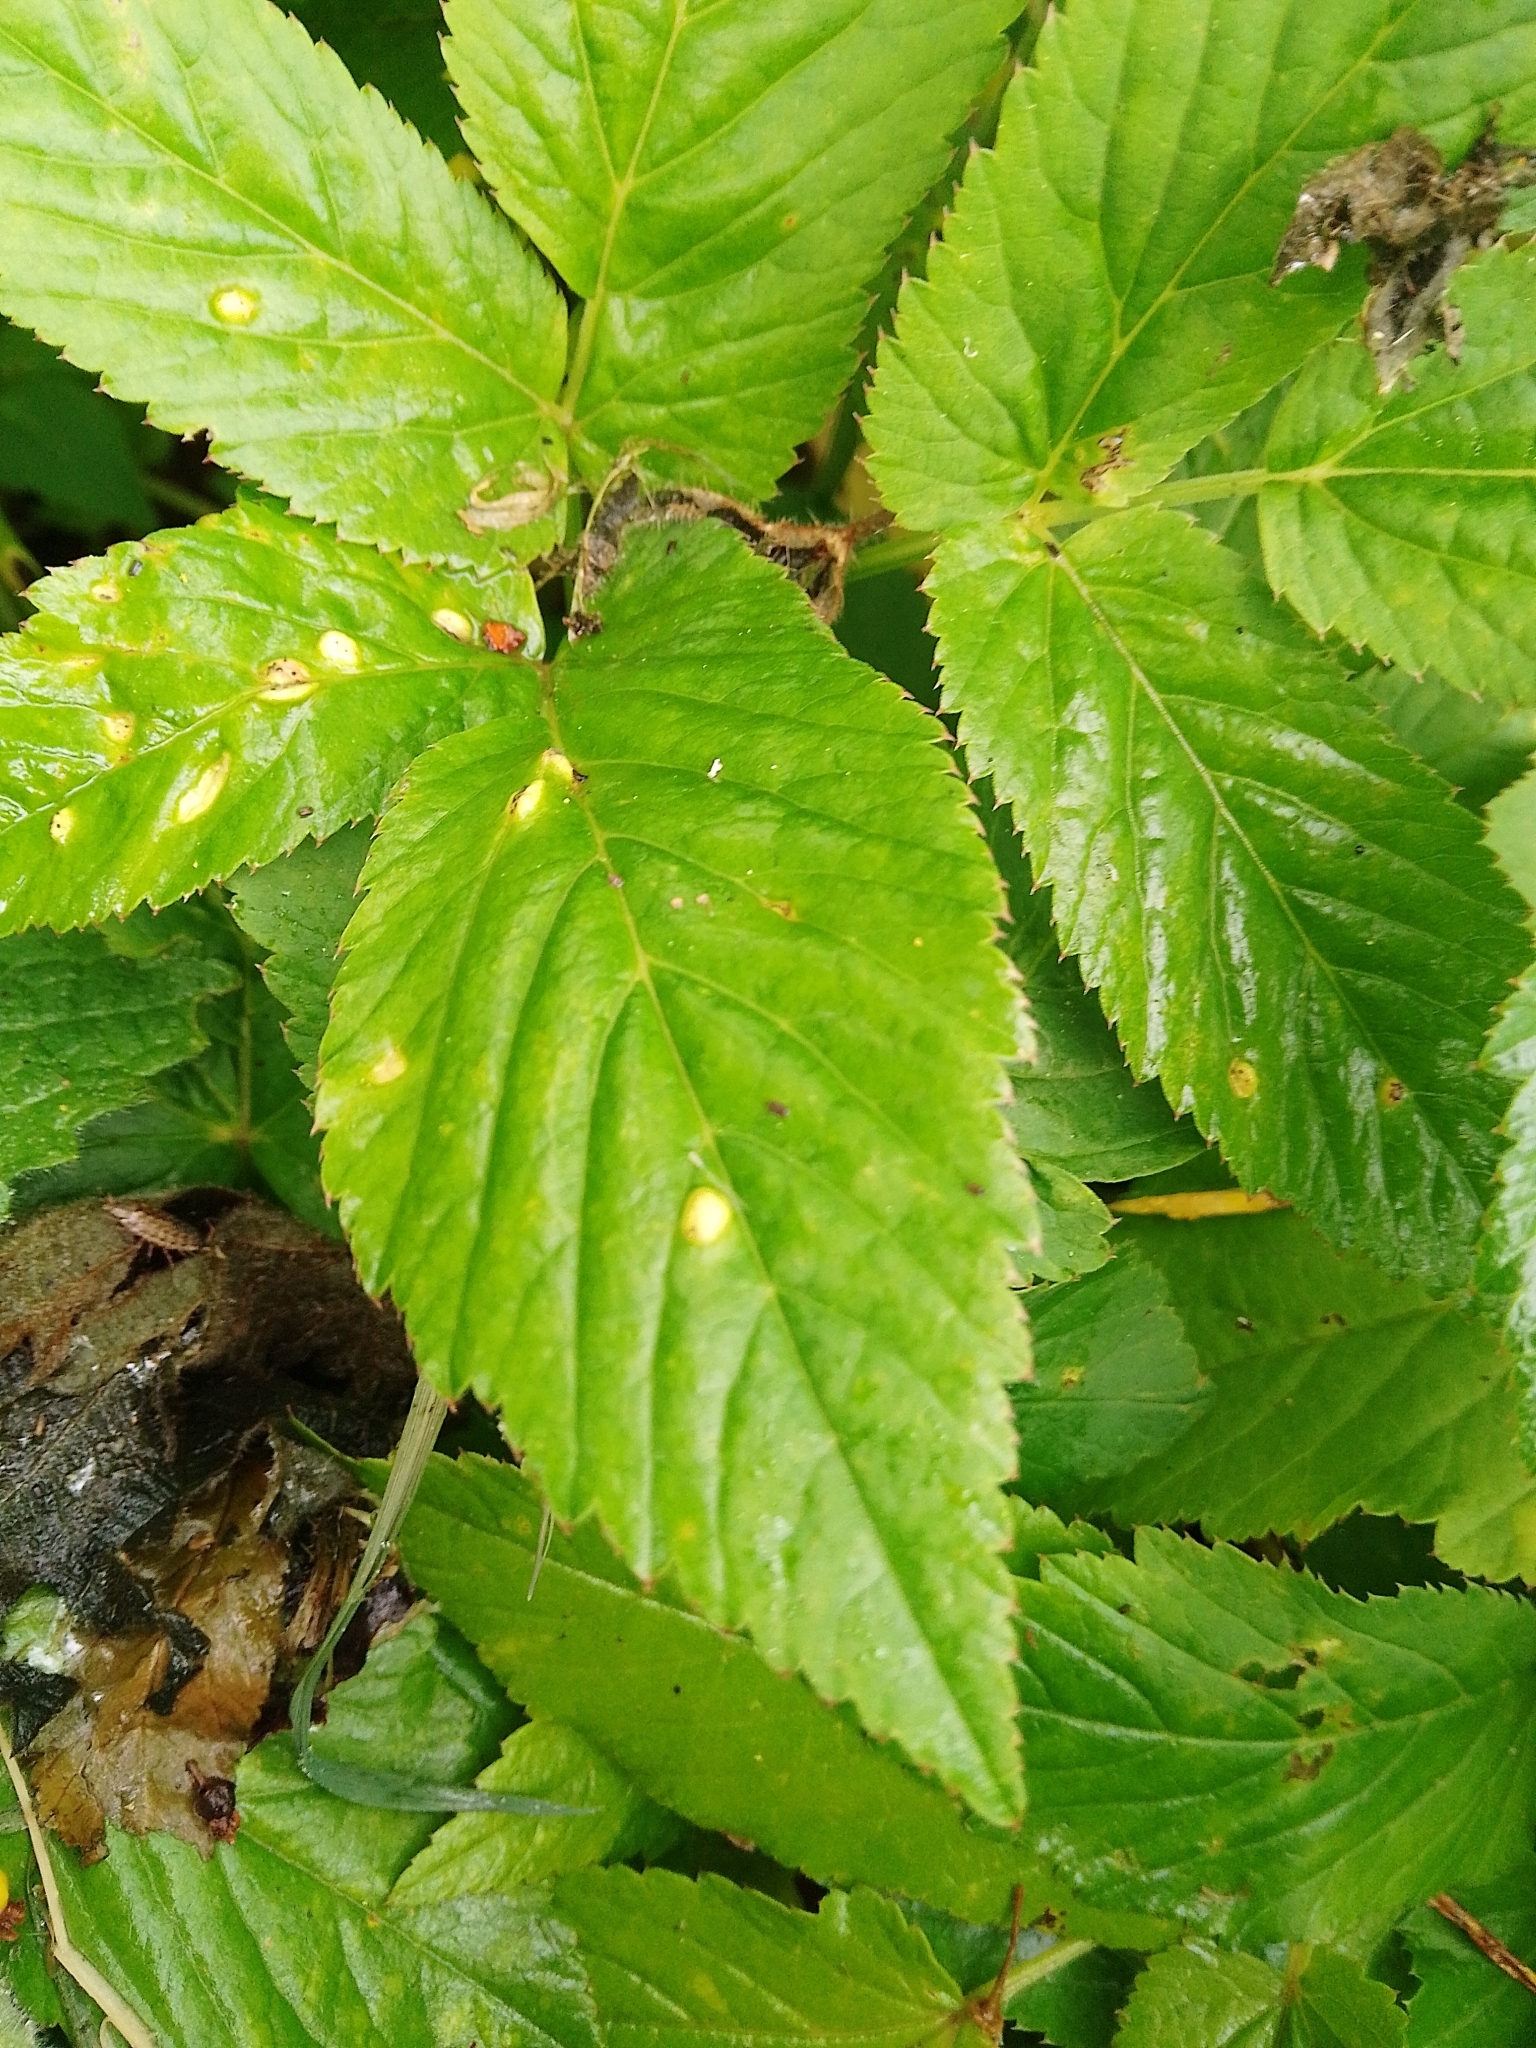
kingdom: Fungi
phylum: Basidiomycota
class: Pucciniomycetes
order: Pucciniales
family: Pucciniaceae
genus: Puccinia
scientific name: Puccinia aegopodii
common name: Ground elder rust
